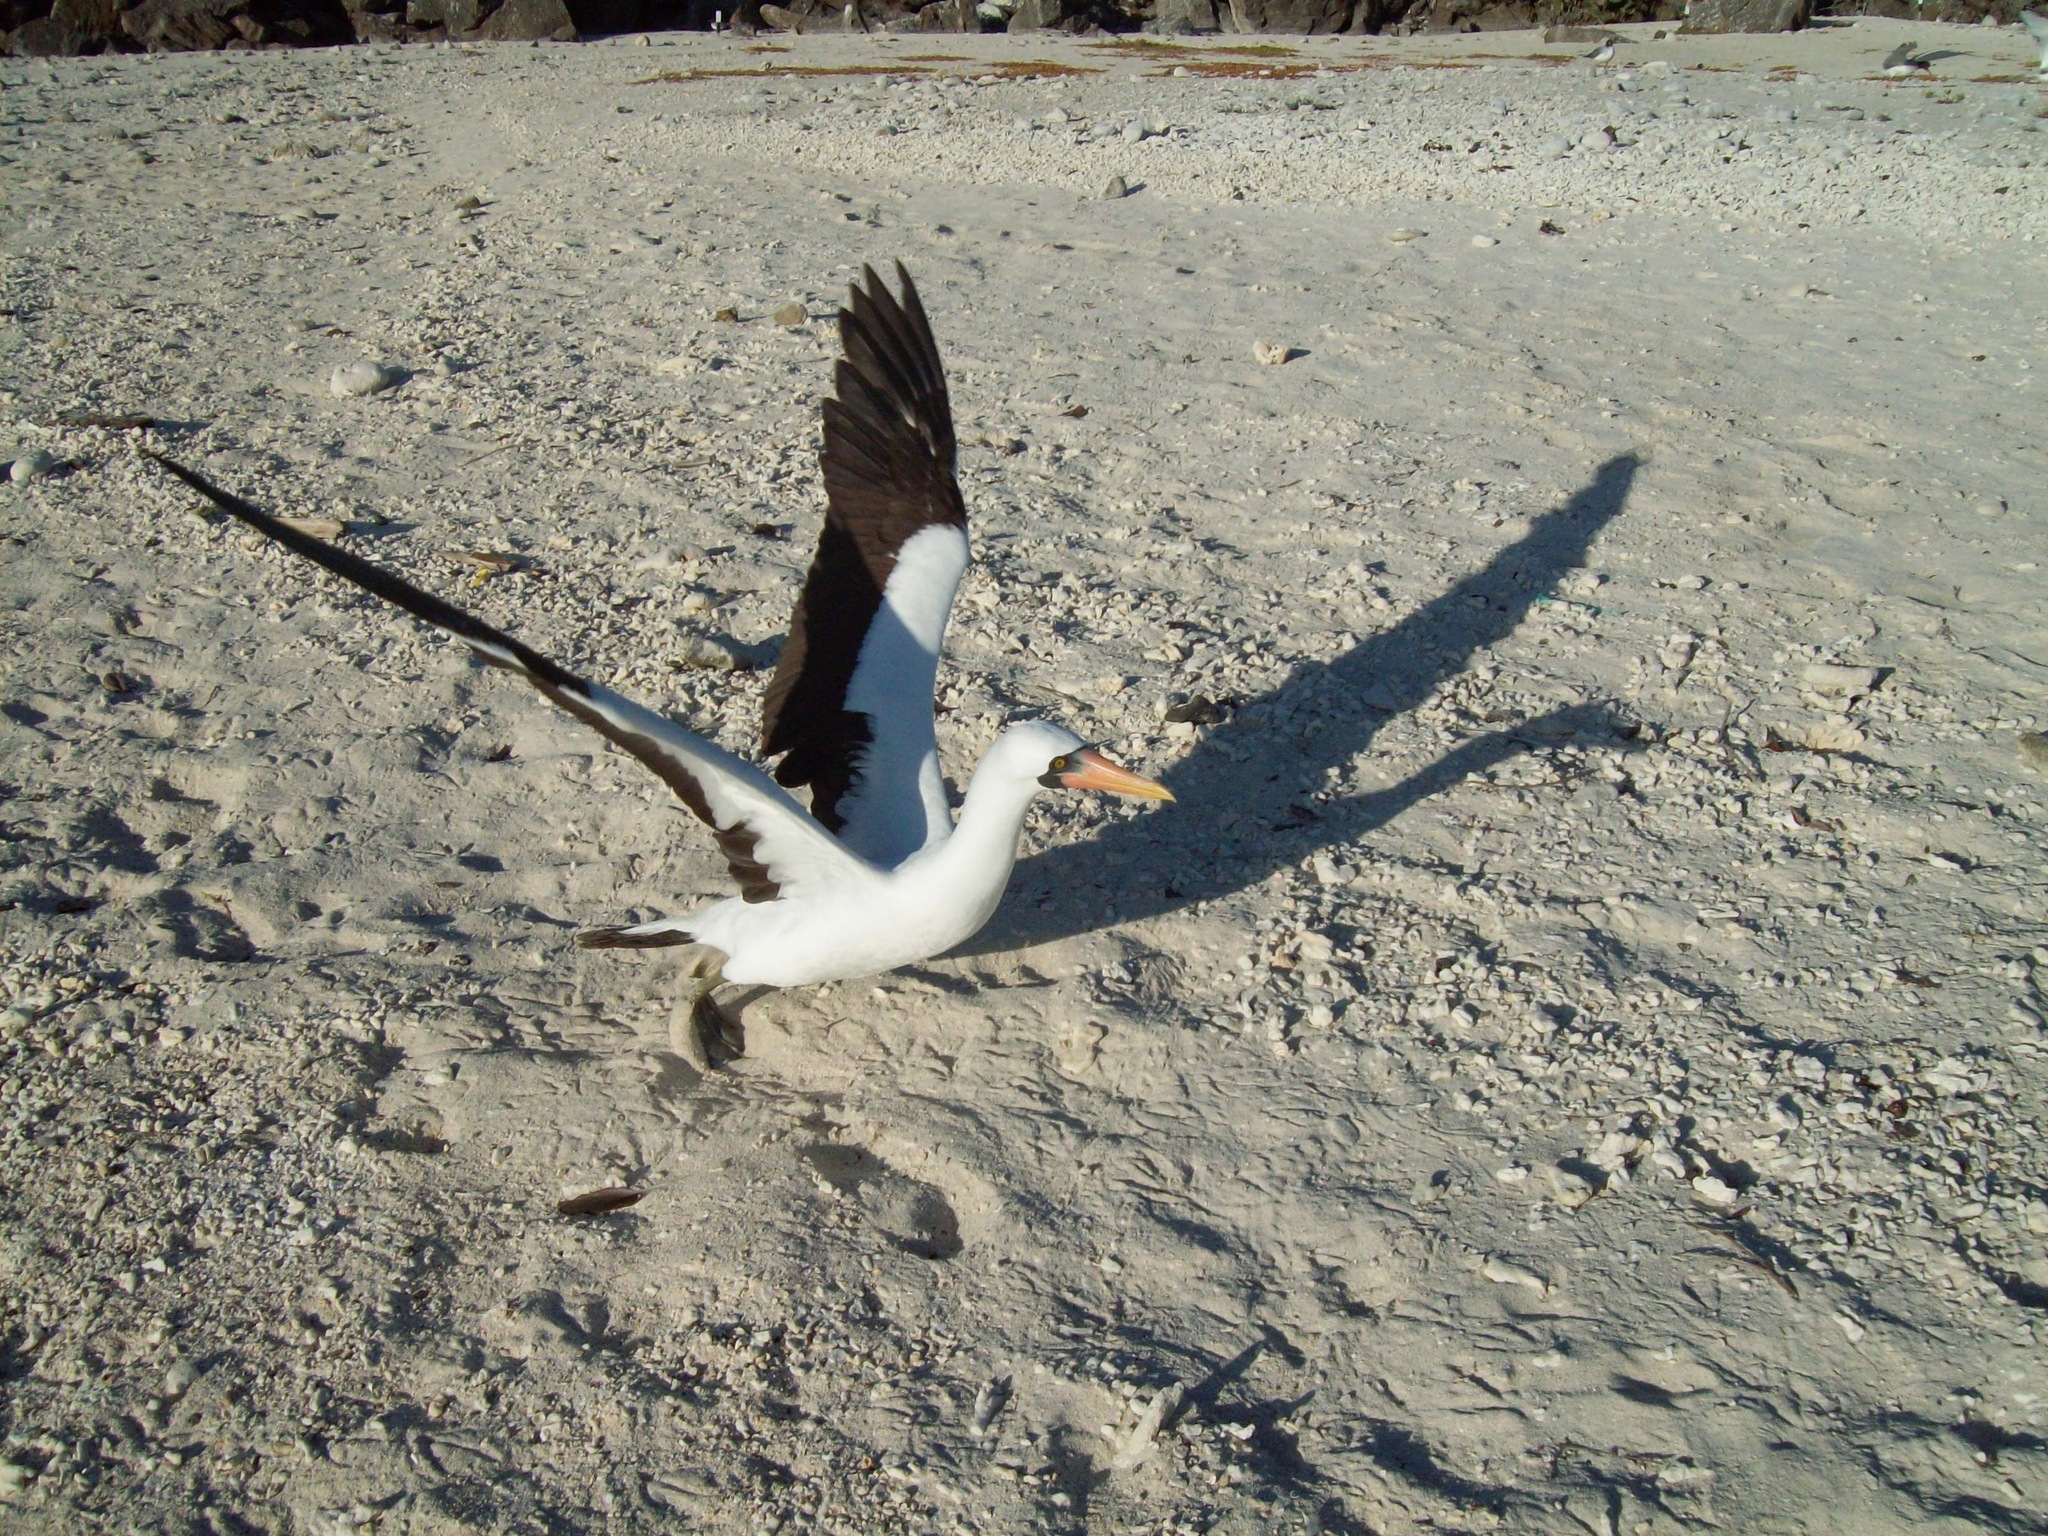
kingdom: Animalia
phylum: Chordata
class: Aves
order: Suliformes
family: Sulidae
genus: Sula
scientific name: Sula granti
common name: Nazca booby
